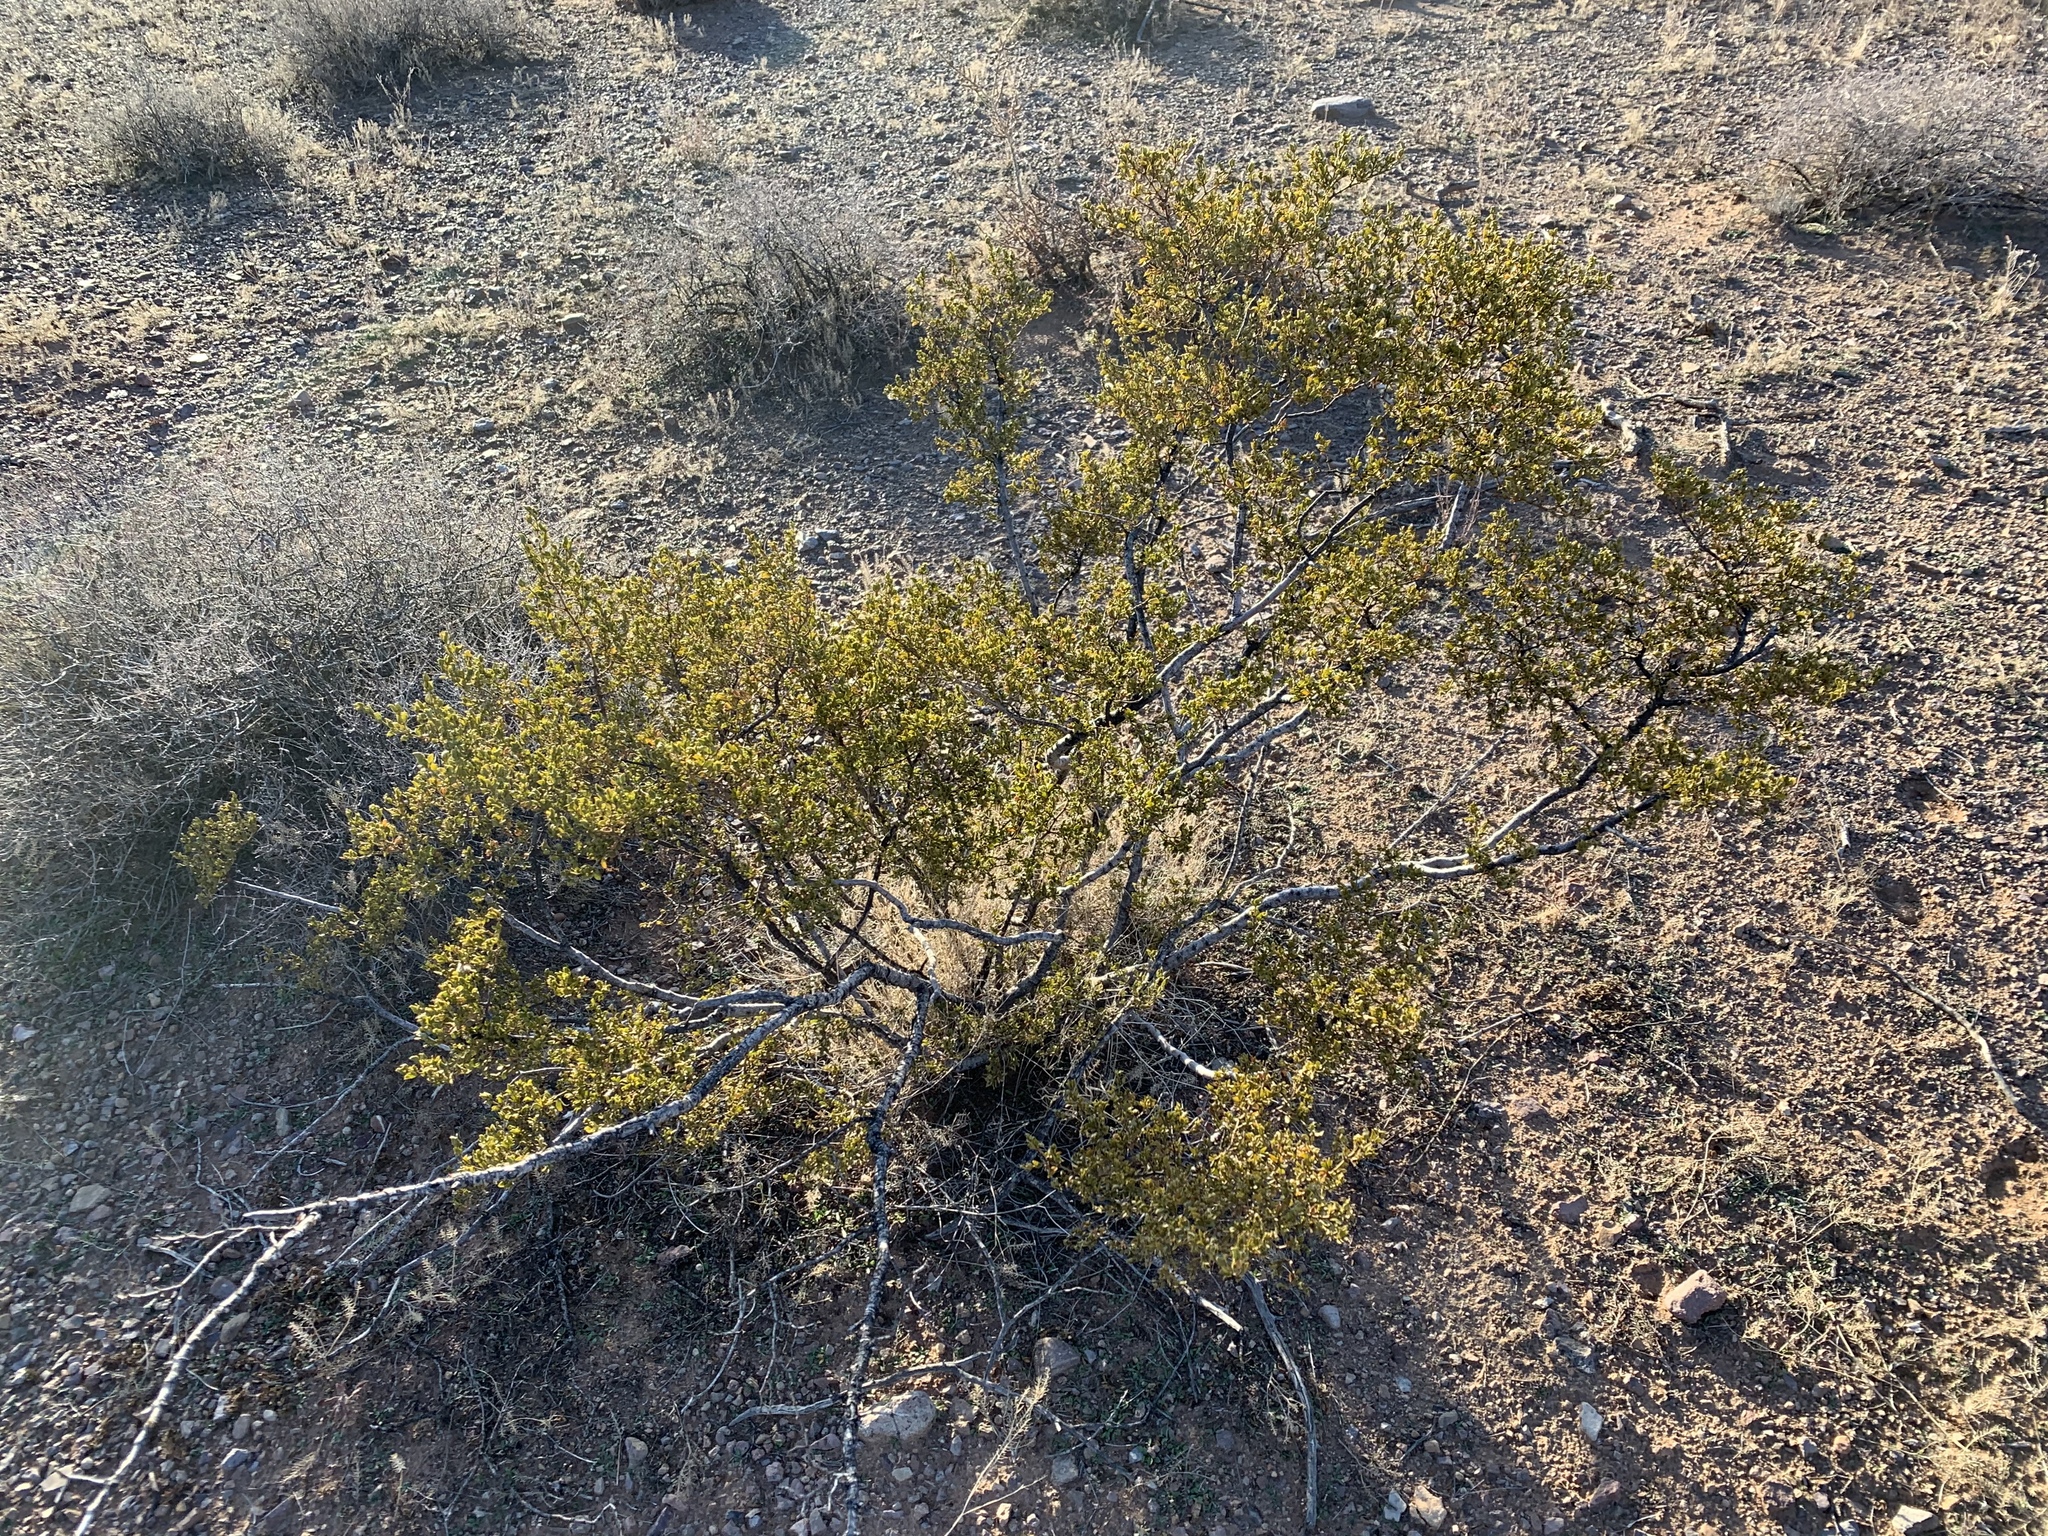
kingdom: Plantae
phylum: Tracheophyta
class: Magnoliopsida
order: Zygophyllales
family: Zygophyllaceae
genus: Larrea
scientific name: Larrea tridentata
